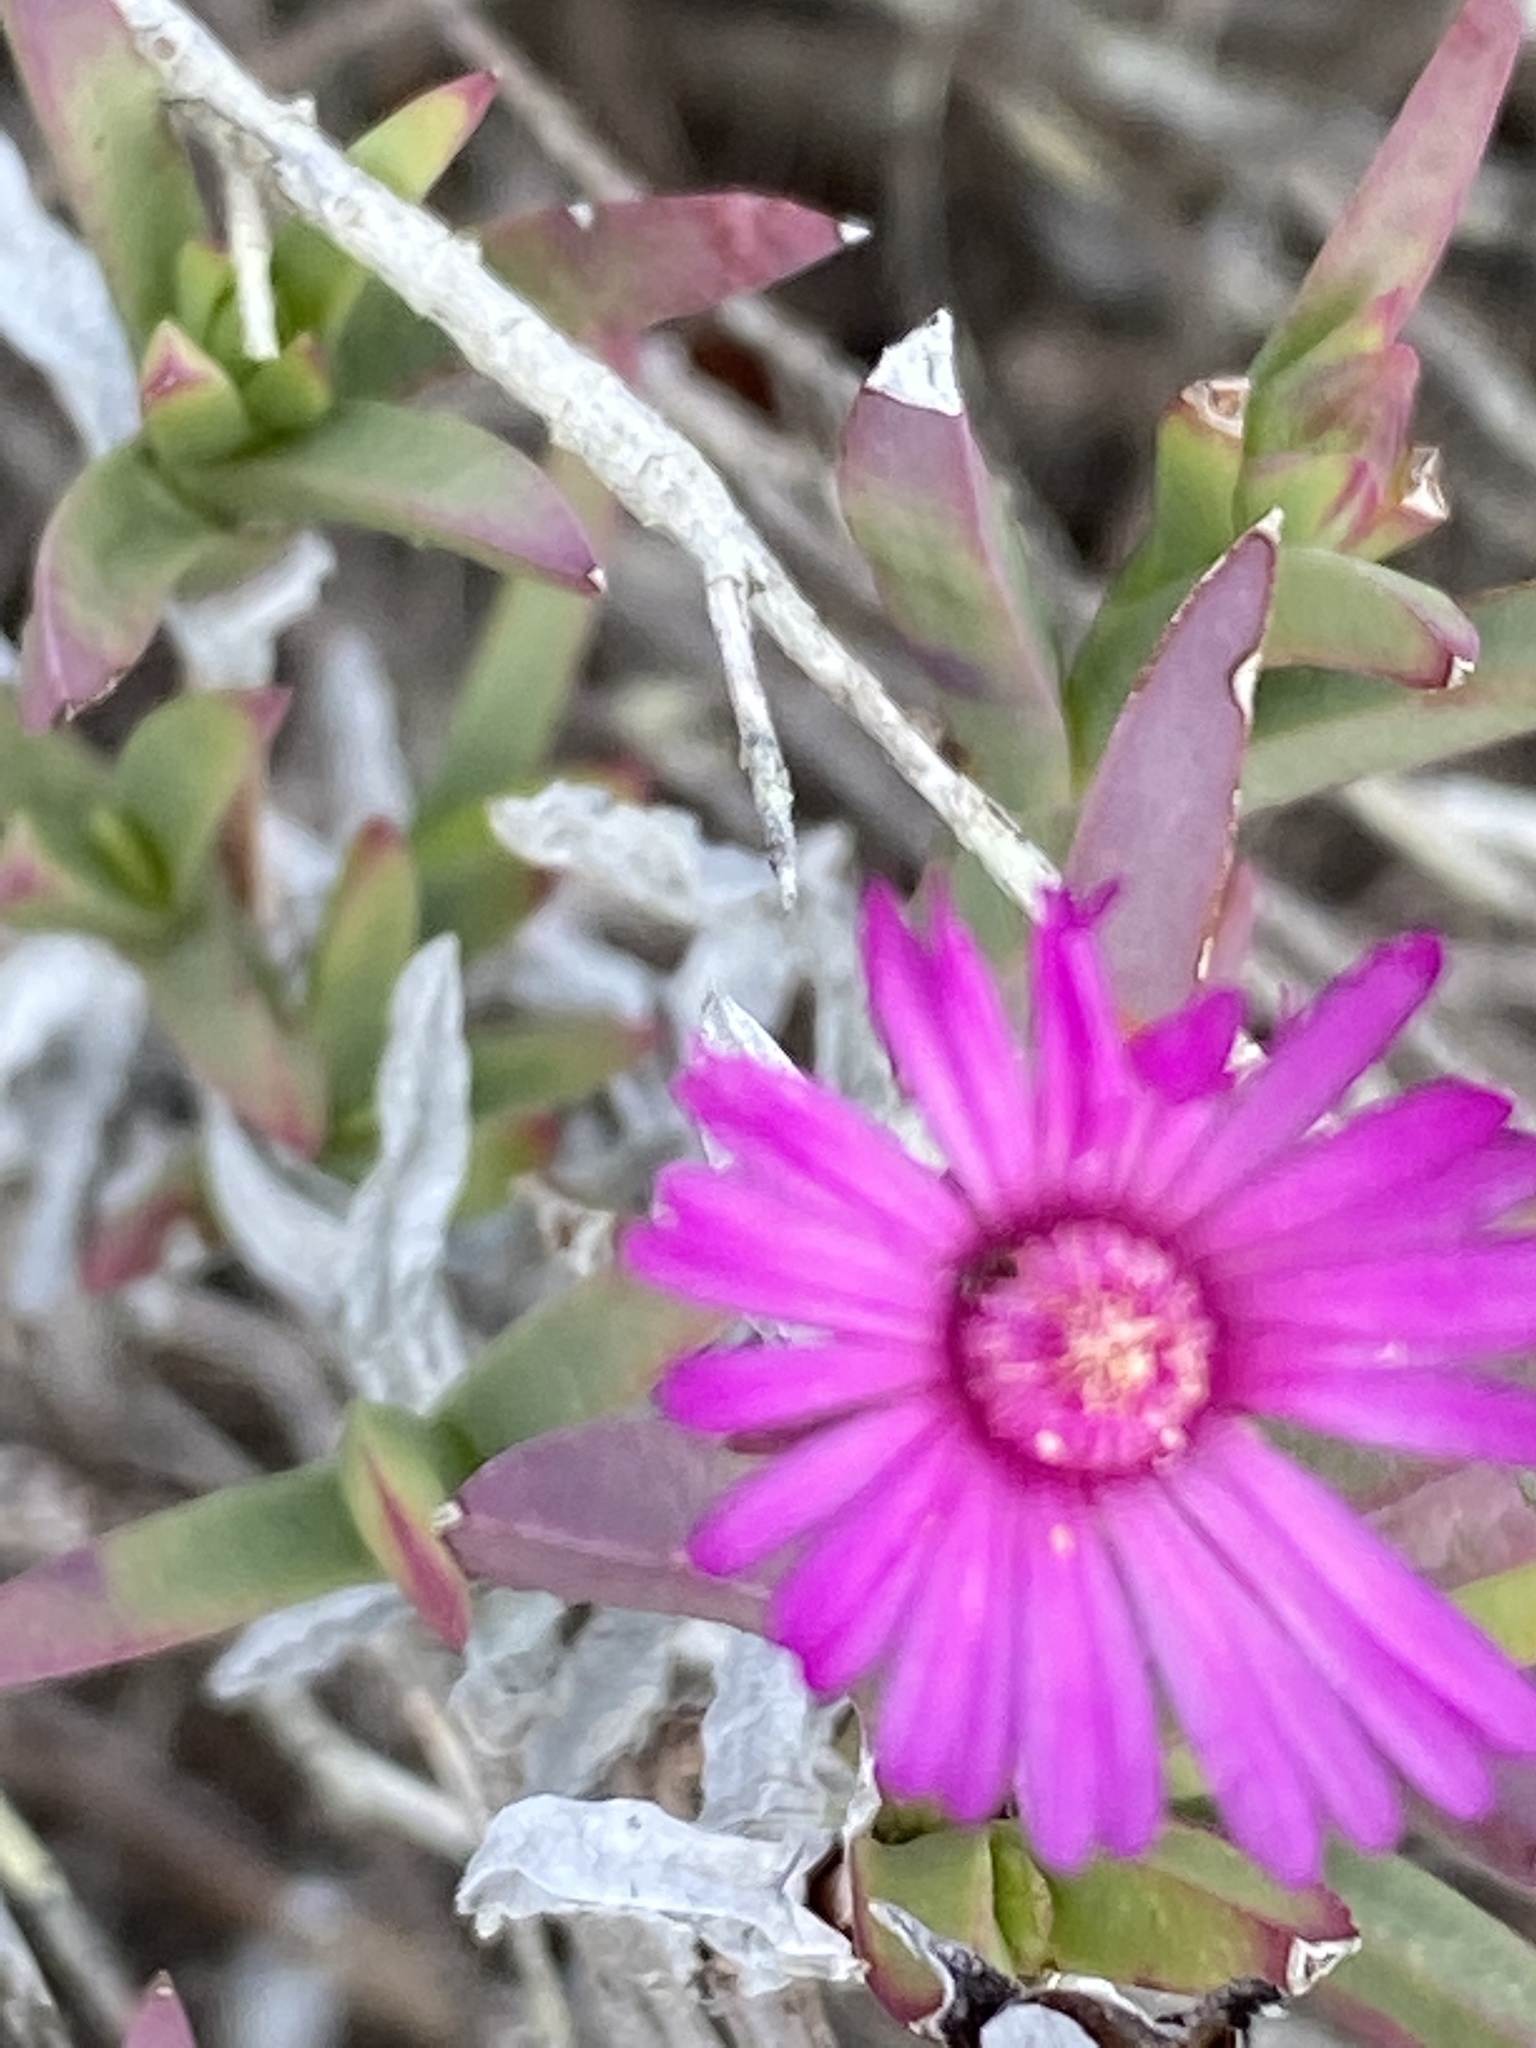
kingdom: Plantae
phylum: Tracheophyta
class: Magnoliopsida
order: Caryophyllales
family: Aizoaceae
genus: Ruschia
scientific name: Ruschia calcicola
